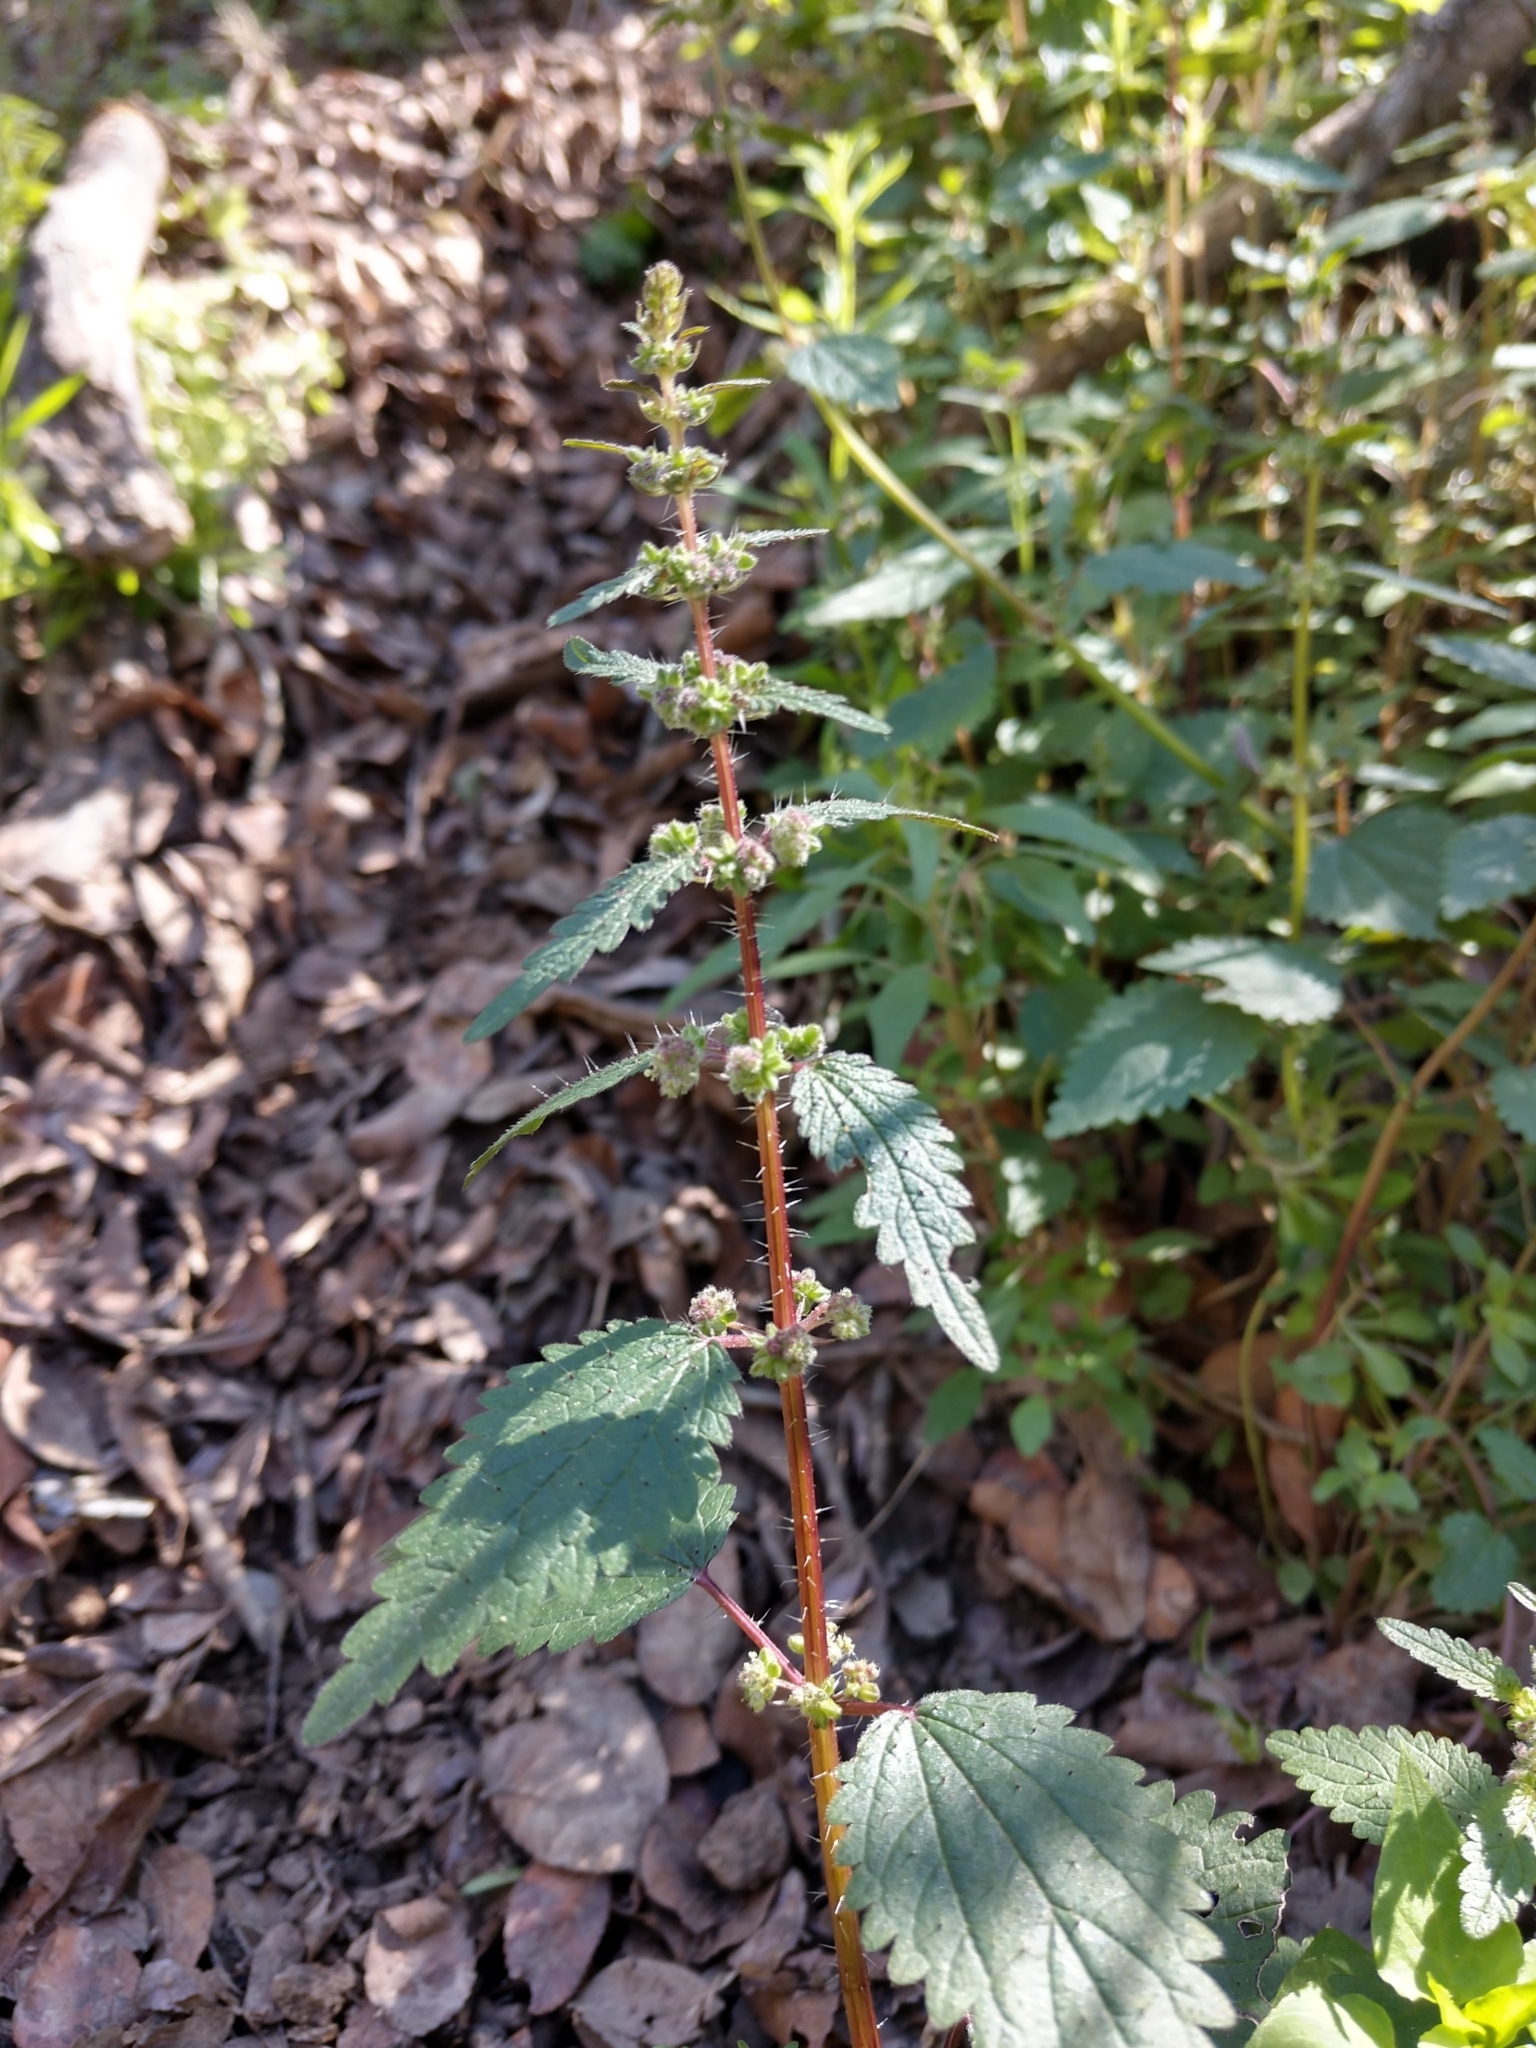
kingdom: Plantae
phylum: Tracheophyta
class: Magnoliopsida
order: Rosales
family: Urticaceae
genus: Urtica
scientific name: Urtica chamaedryoides
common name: Heart-leaf nettle
